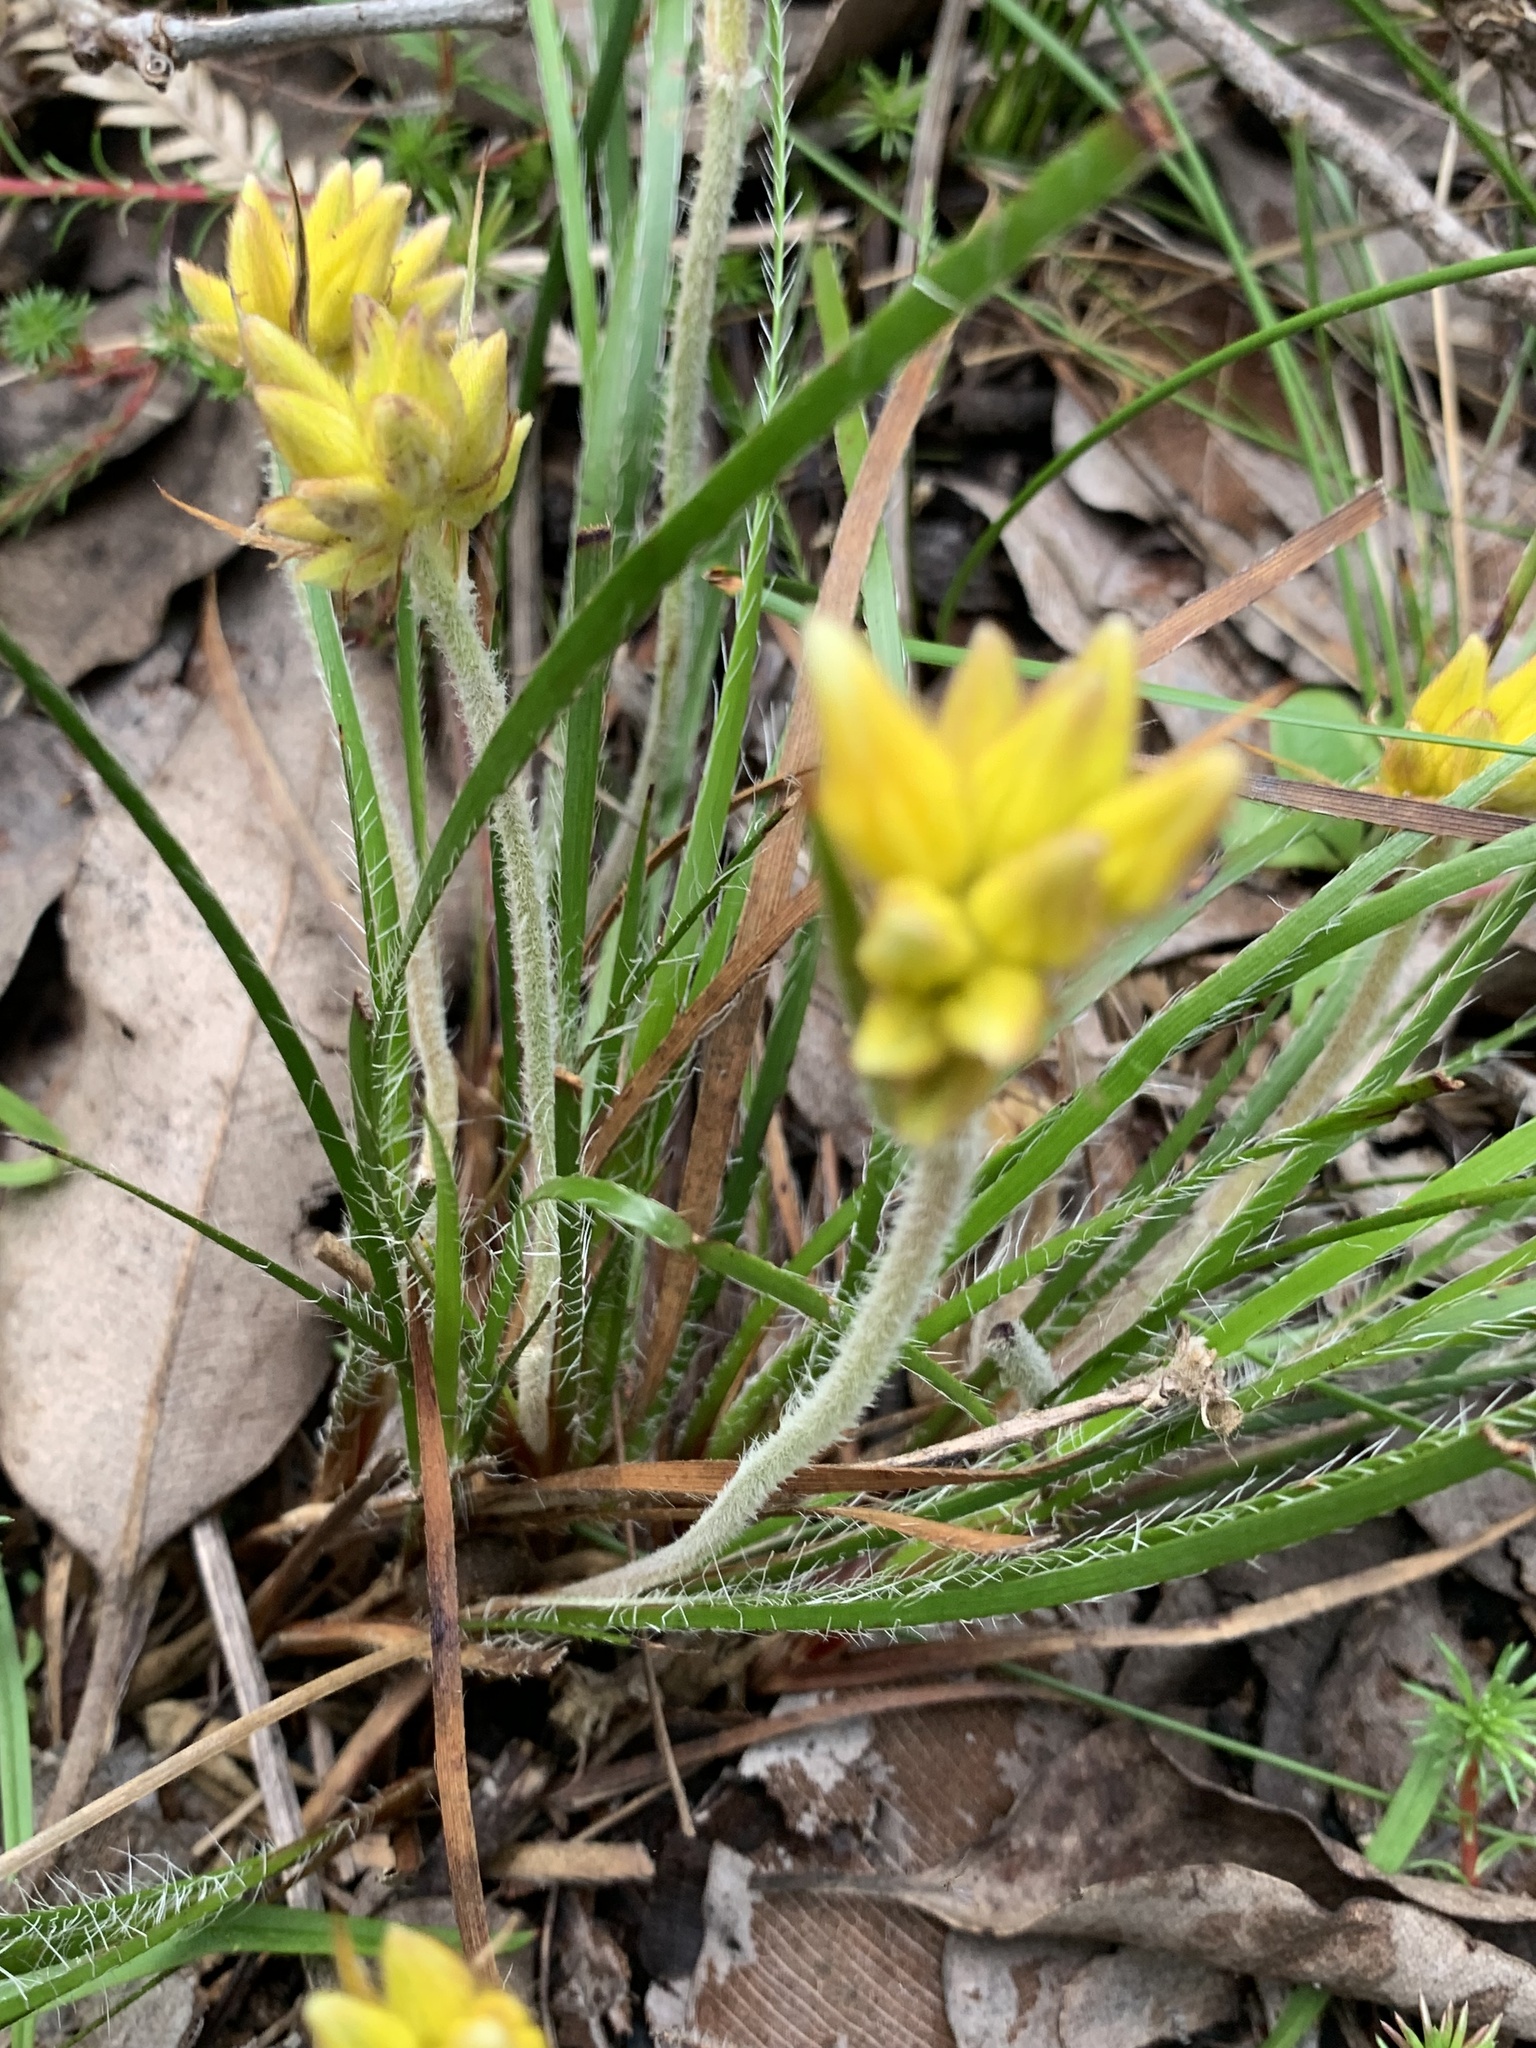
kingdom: Plantae
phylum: Tracheophyta
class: Liliopsida
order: Commelinales
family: Haemodoraceae
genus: Conostylis
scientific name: Conostylis setigera
